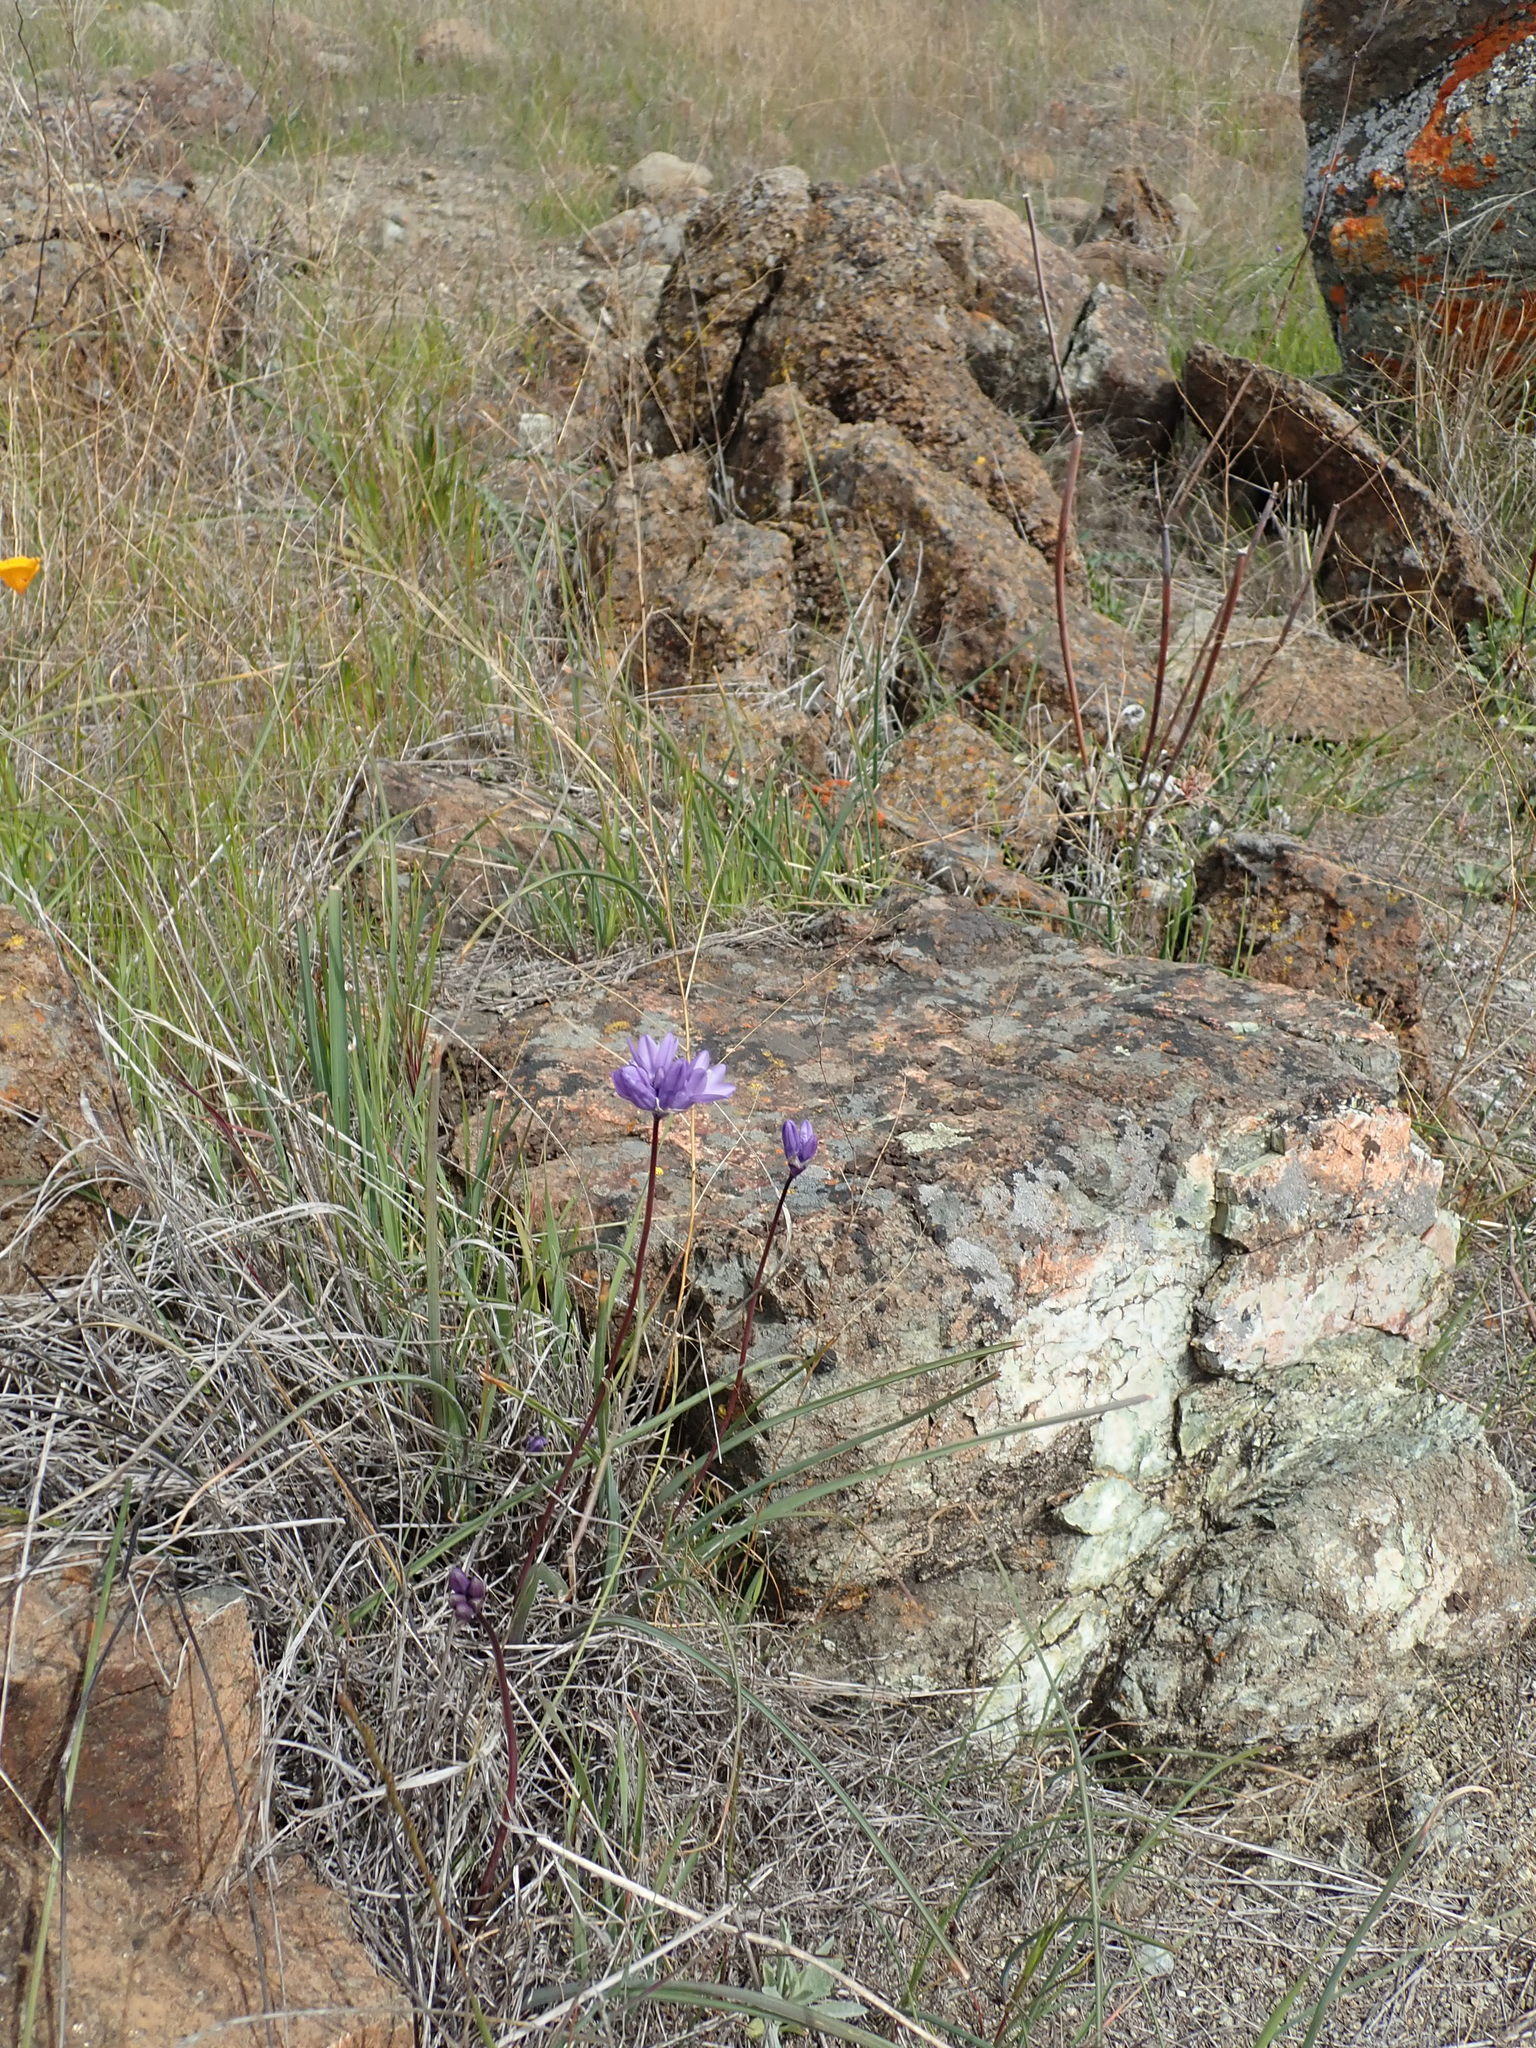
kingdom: Plantae
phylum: Tracheophyta
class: Liliopsida
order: Asparagales
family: Asparagaceae
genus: Dipterostemon
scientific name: Dipterostemon capitatus
